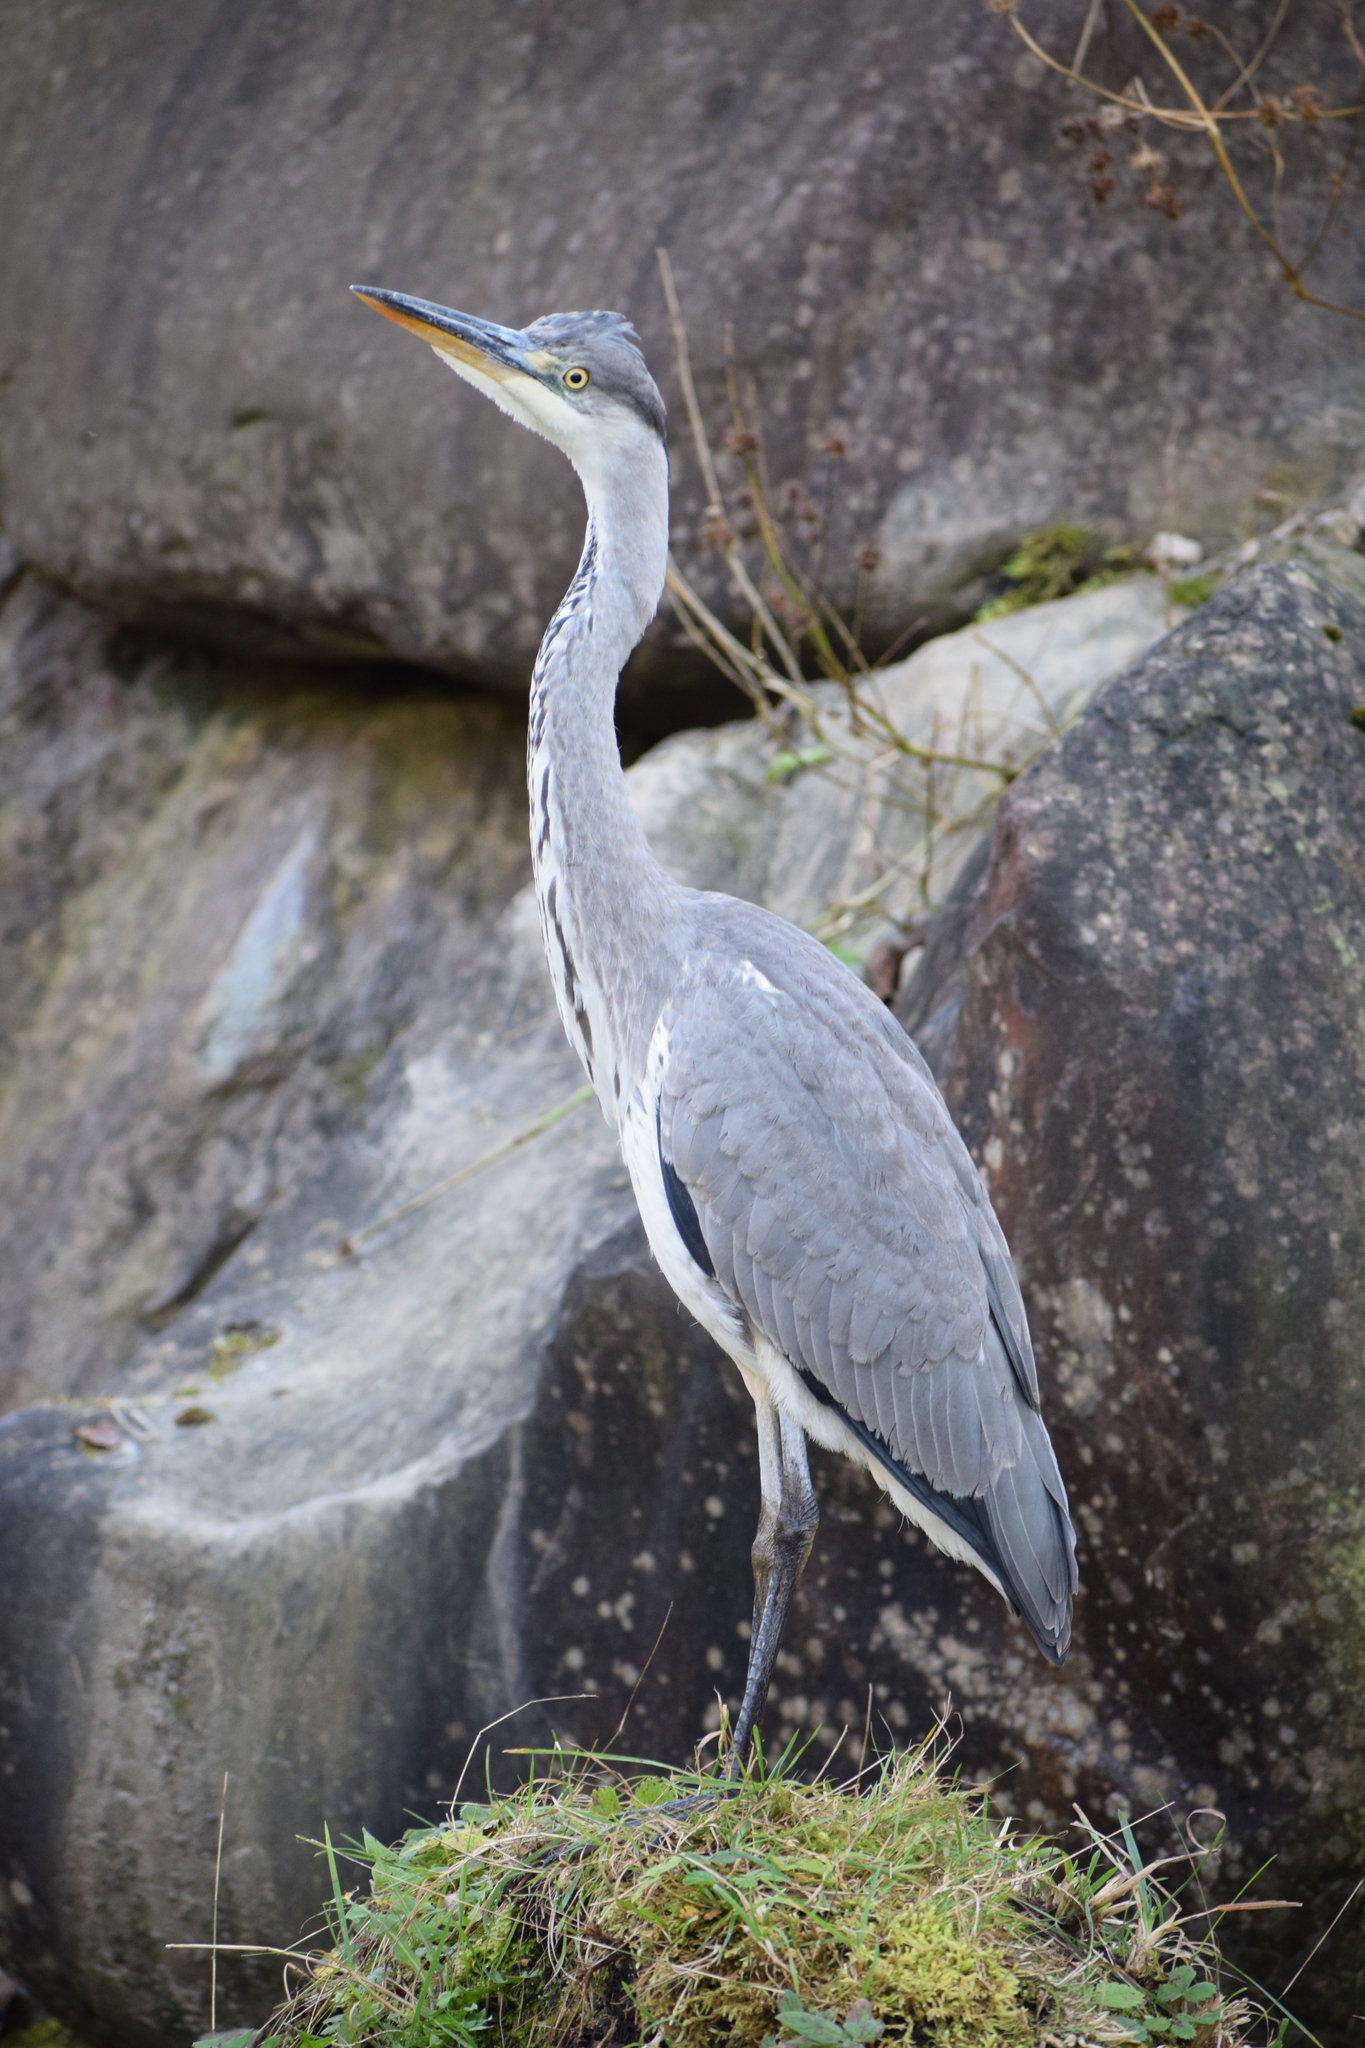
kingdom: Animalia
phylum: Chordata
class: Aves
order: Pelecaniformes
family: Ardeidae
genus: Ardea
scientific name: Ardea cinerea
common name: Grey heron
